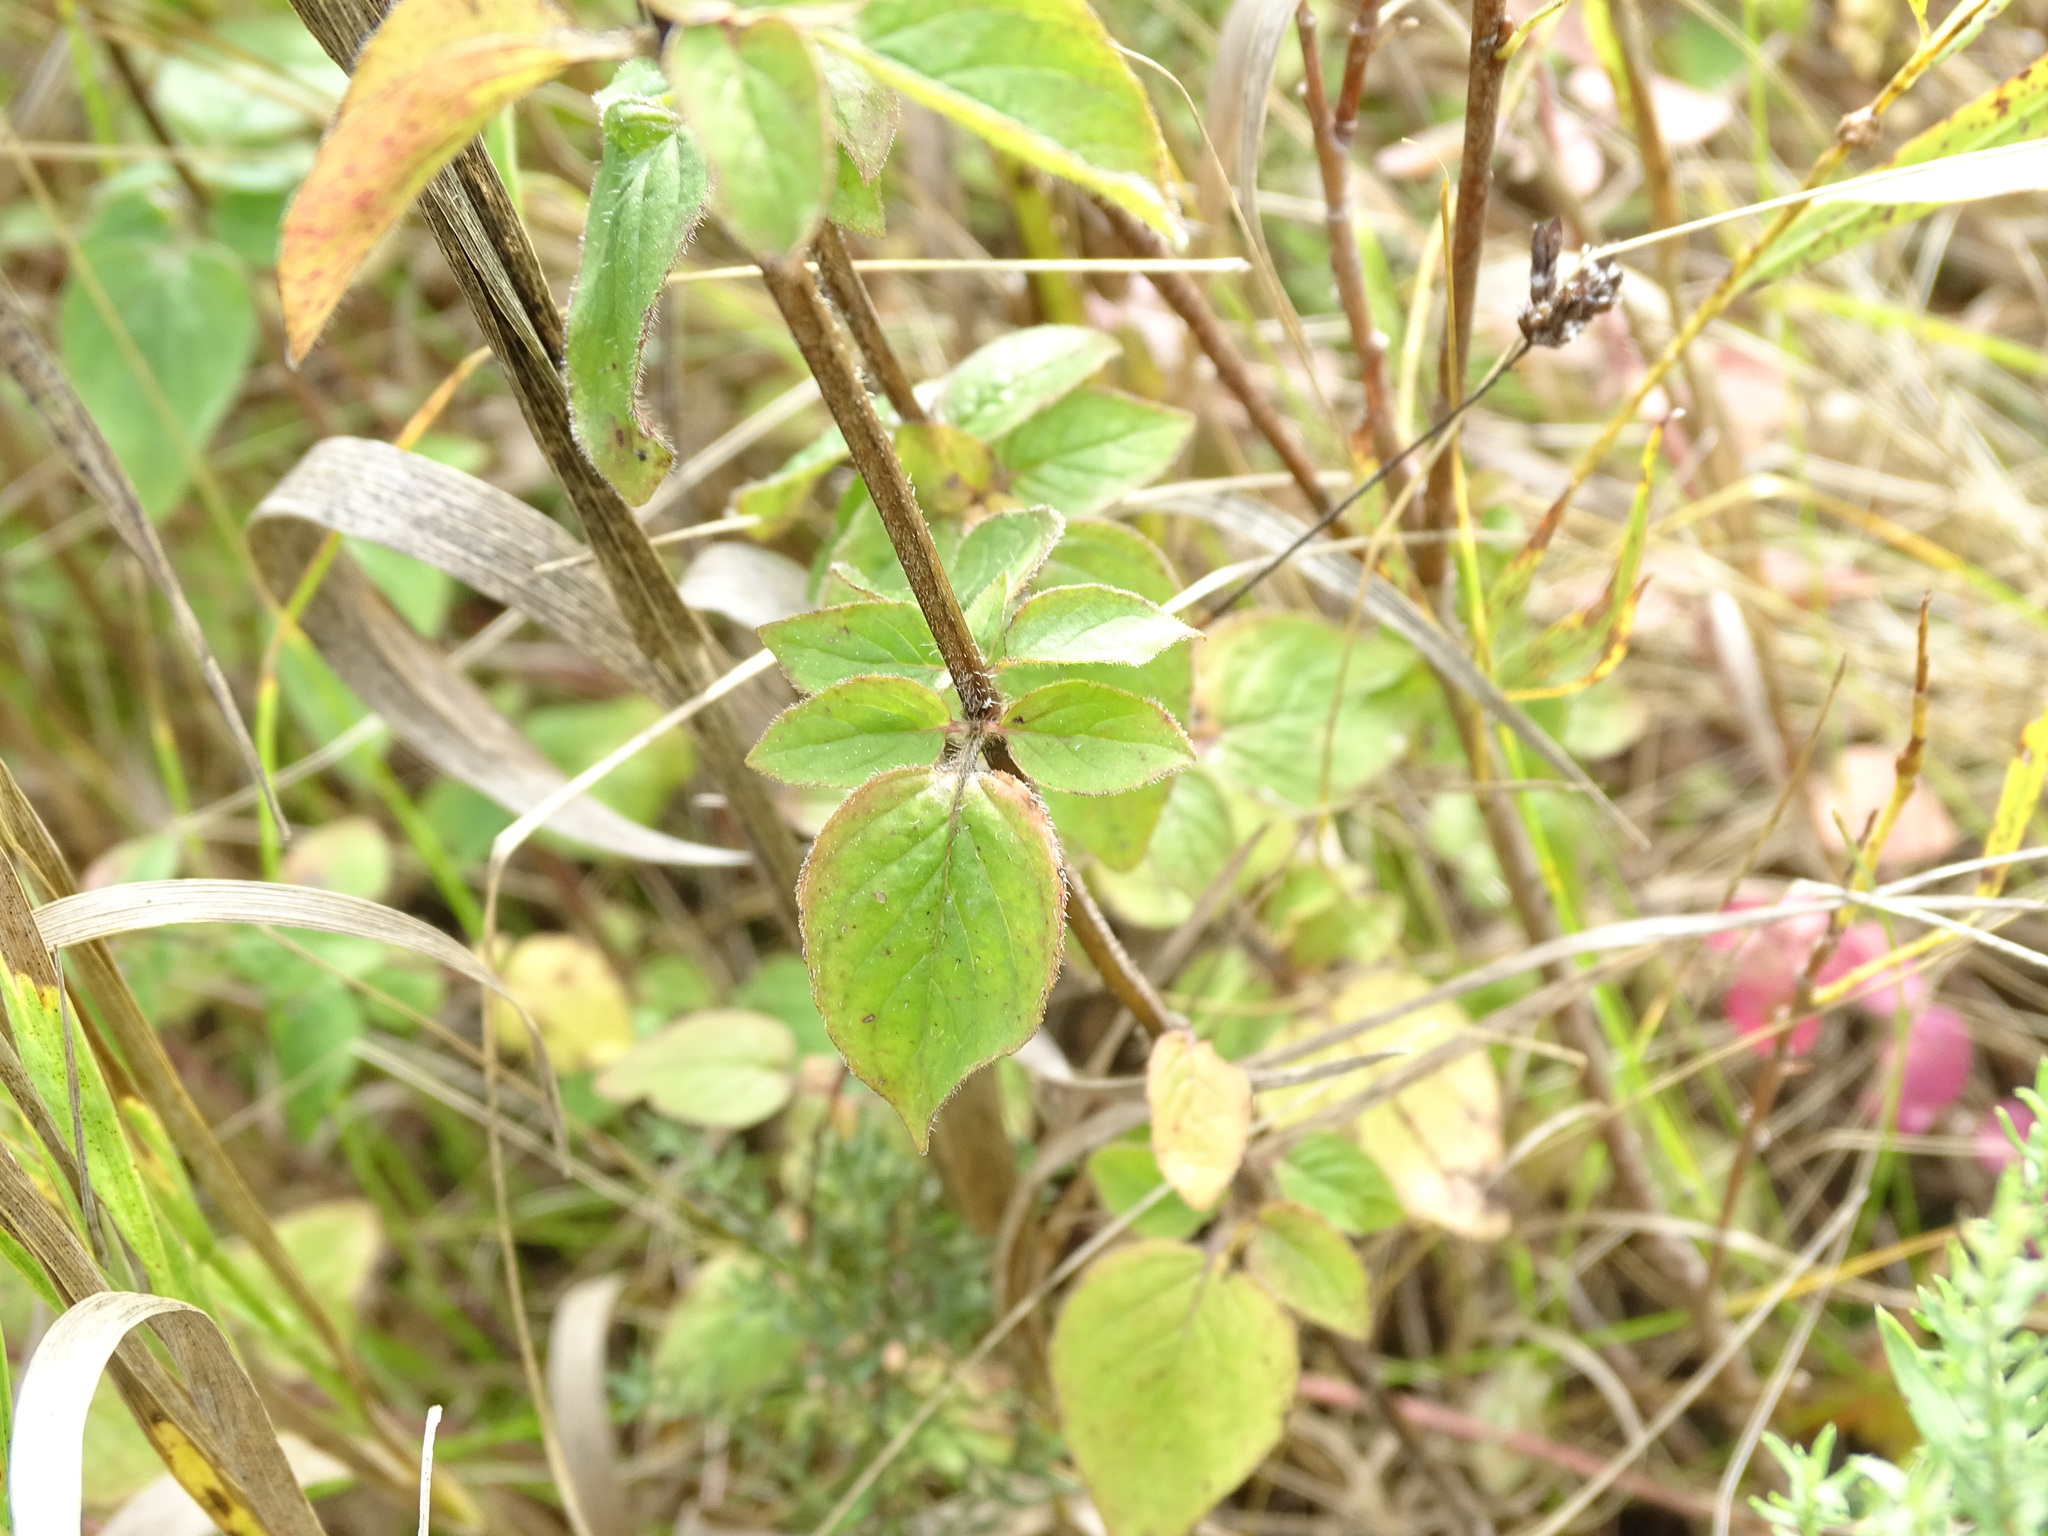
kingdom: Plantae
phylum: Tracheophyta
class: Magnoliopsida
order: Lamiales
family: Lamiaceae
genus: Origanum
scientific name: Origanum vulgare
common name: Wild marjoram
